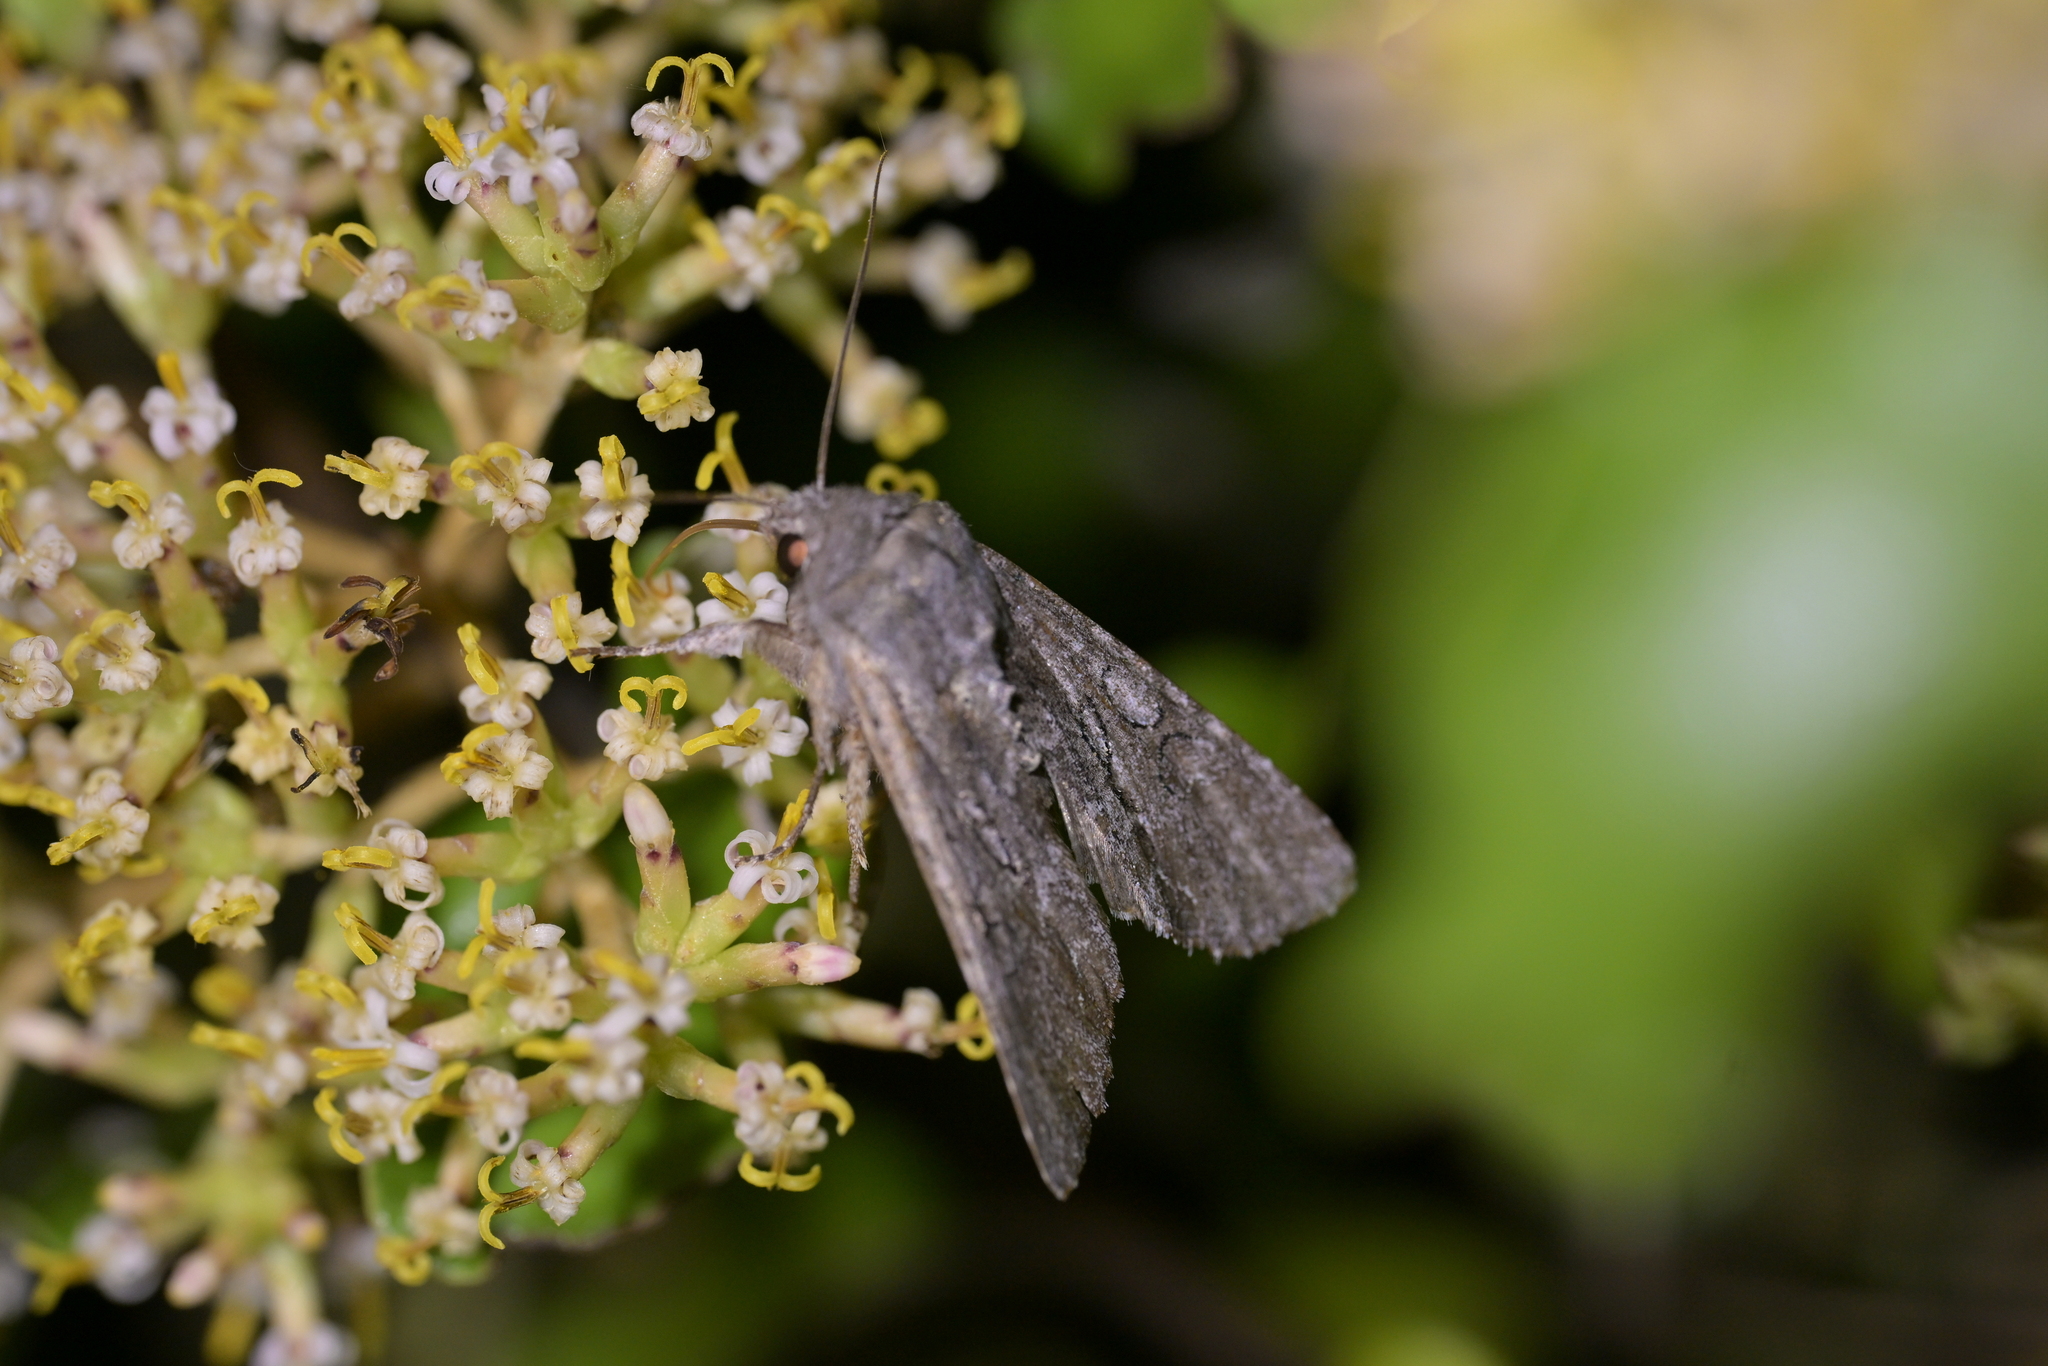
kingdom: Animalia
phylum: Arthropoda
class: Insecta
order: Lepidoptera
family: Noctuidae
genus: Ichneutica
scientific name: Ichneutica
